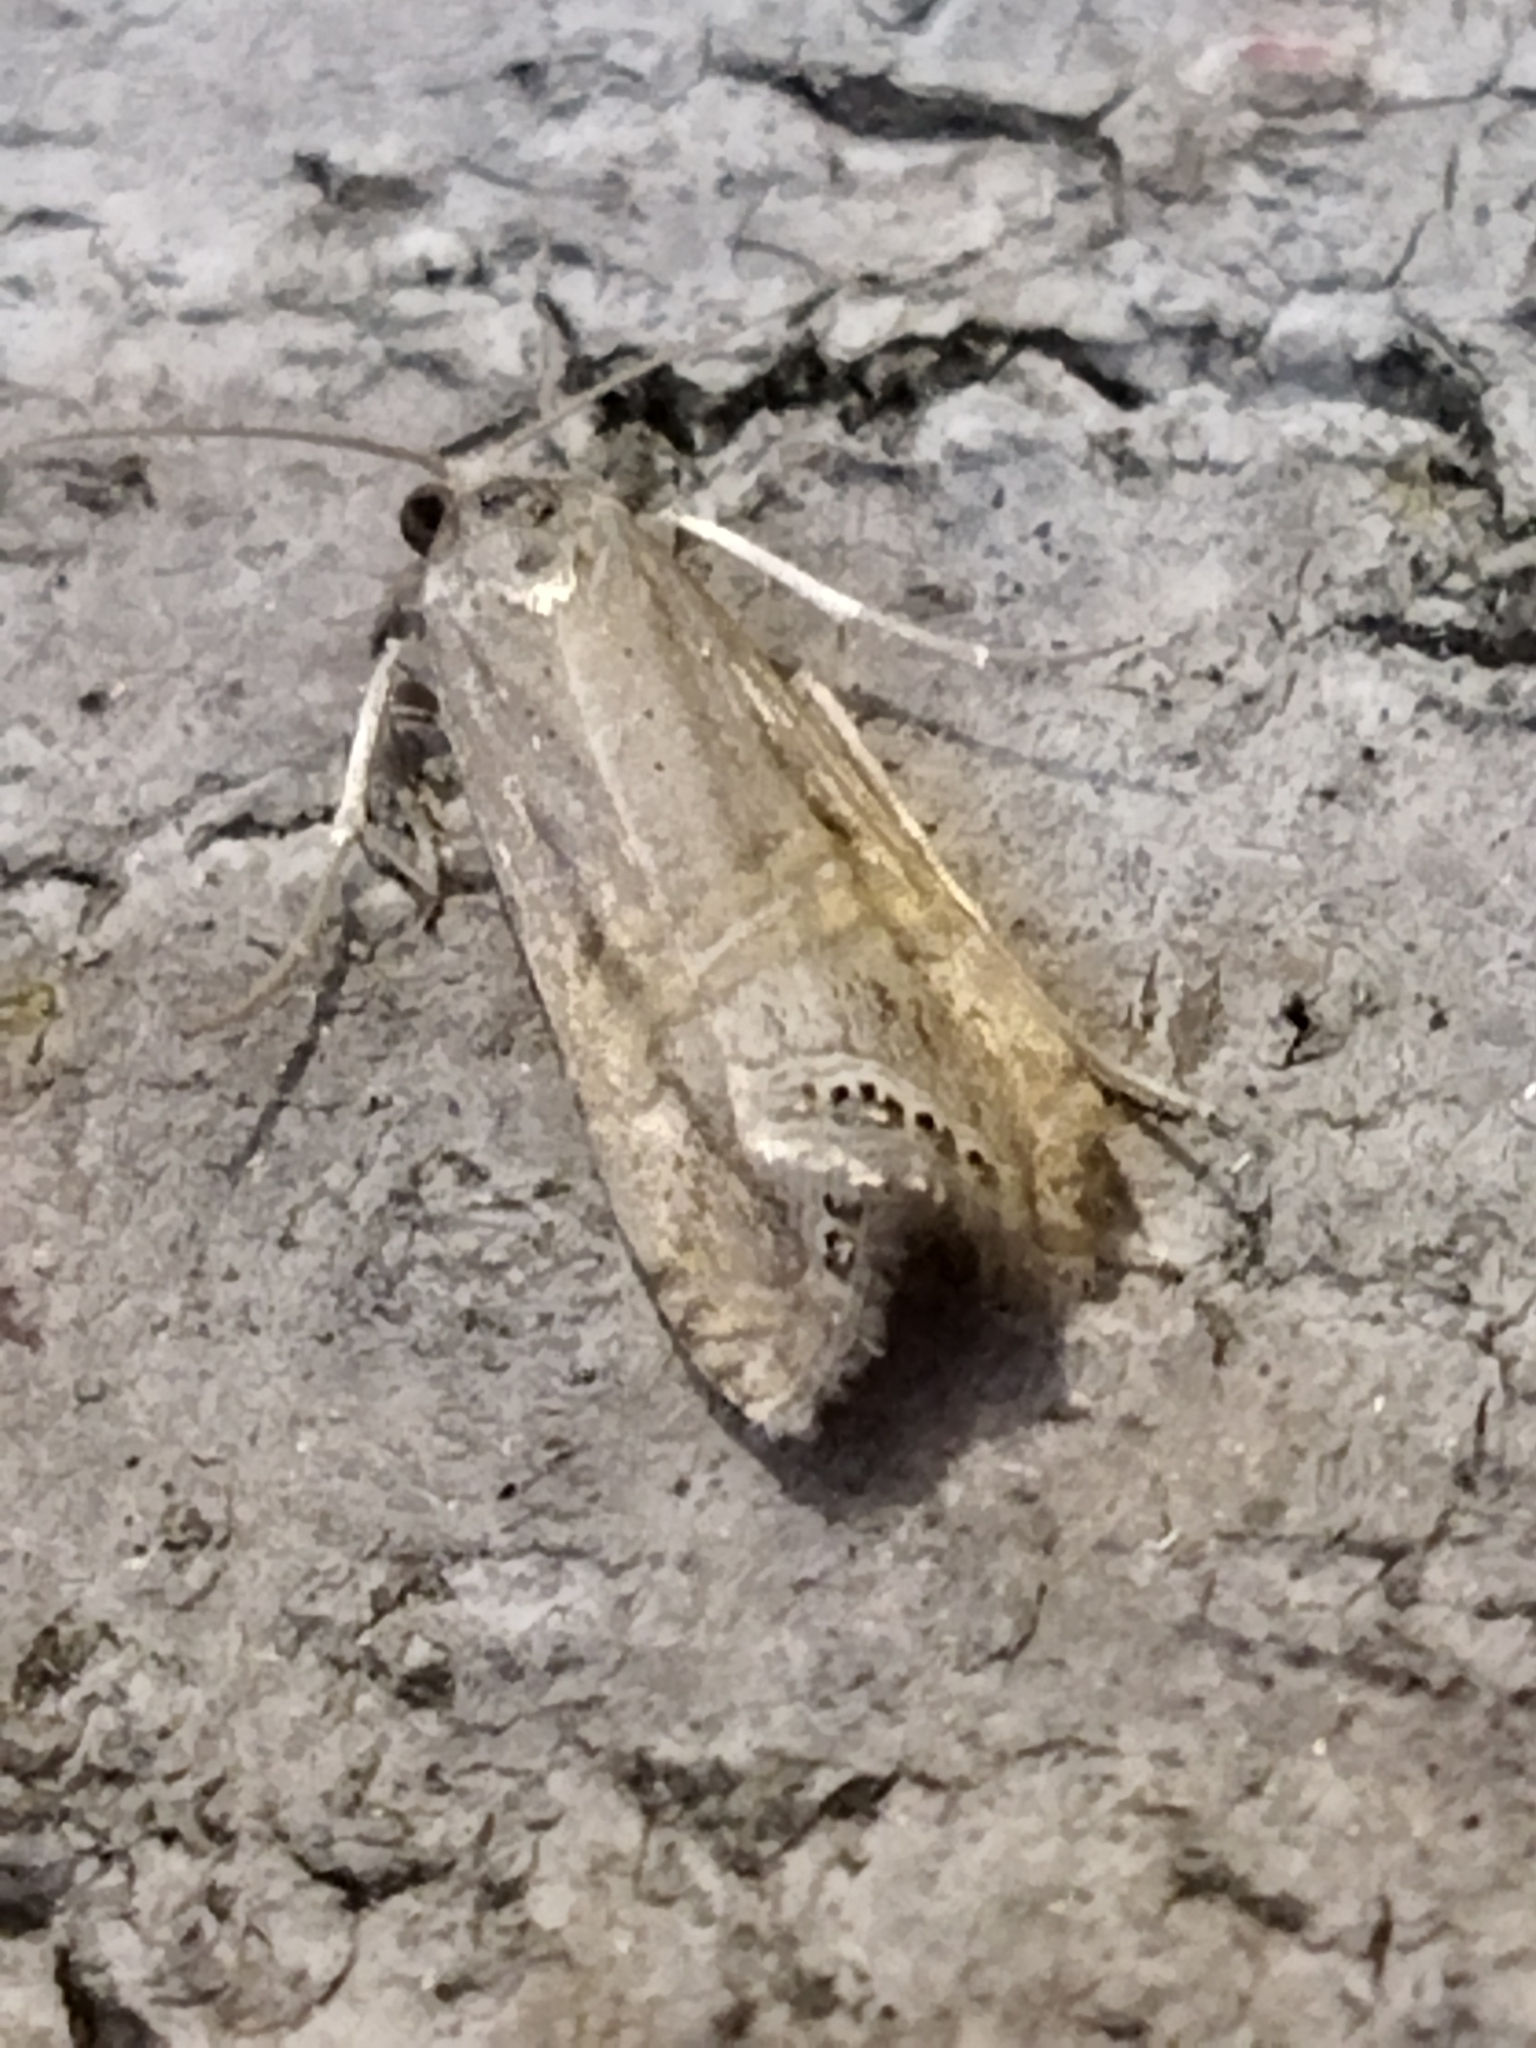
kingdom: Animalia
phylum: Arthropoda
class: Insecta
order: Lepidoptera
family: Crambidae
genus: Euchromius
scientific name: Euchromius ocellea
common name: Necklace veneer moth
